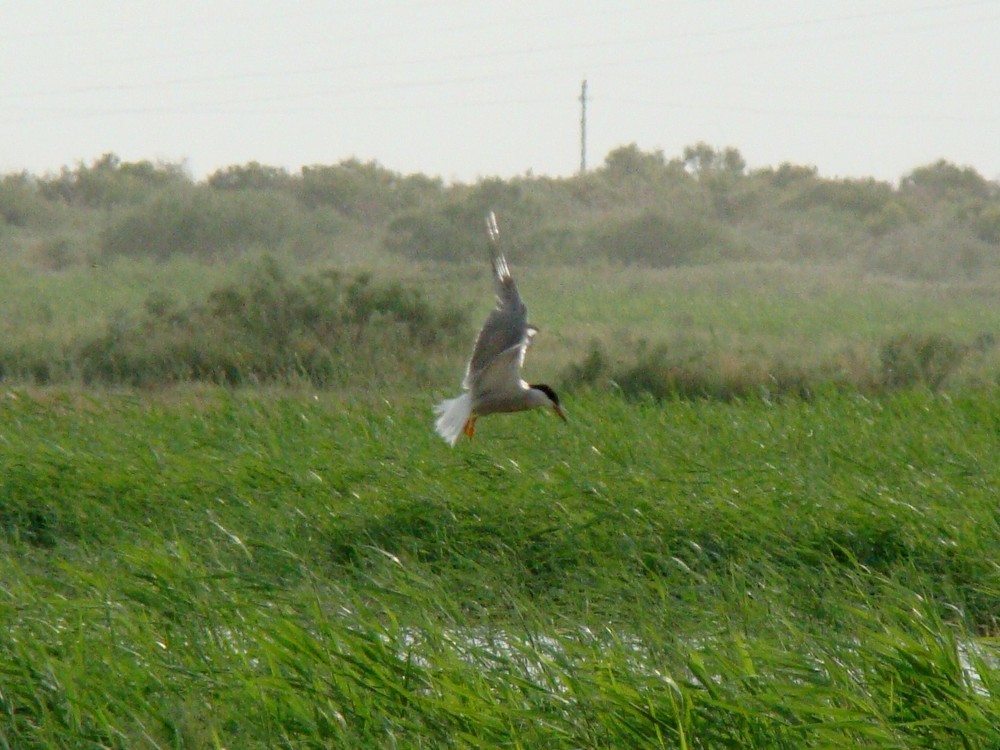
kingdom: Animalia
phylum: Chordata
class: Aves
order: Charadriiformes
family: Laridae
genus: Sterna
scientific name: Sterna hirundo
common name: Common tern
